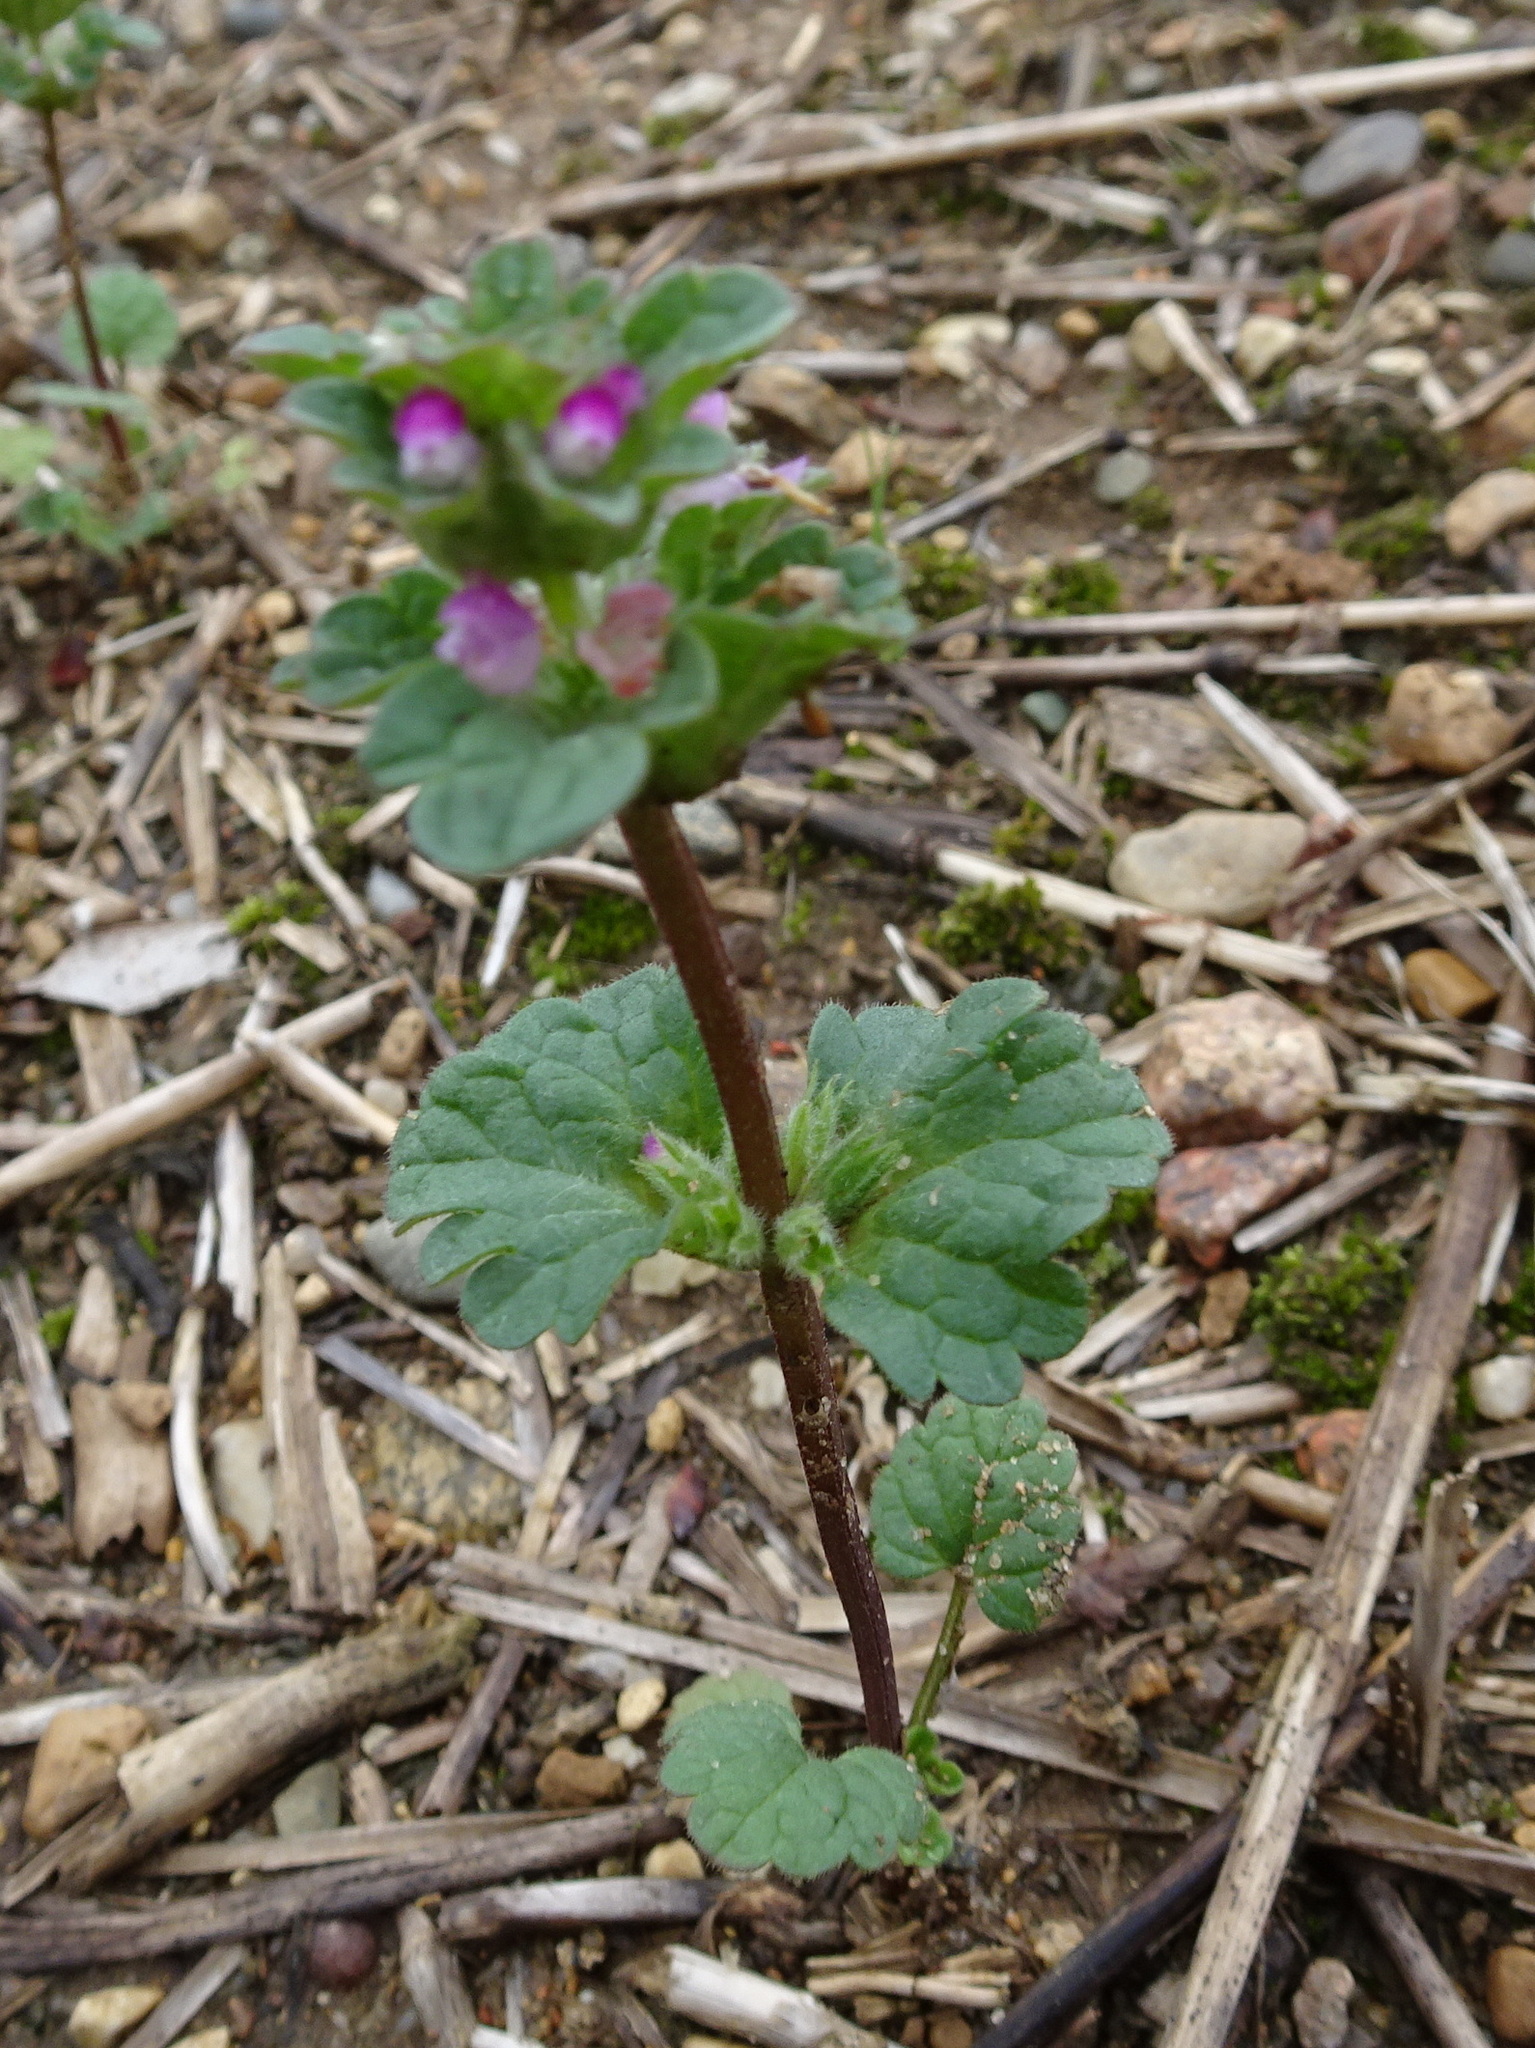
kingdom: Plantae
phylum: Tracheophyta
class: Magnoliopsida
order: Lamiales
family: Lamiaceae
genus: Lamium
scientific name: Lamium amplexicaule
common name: Henbit dead-nettle
